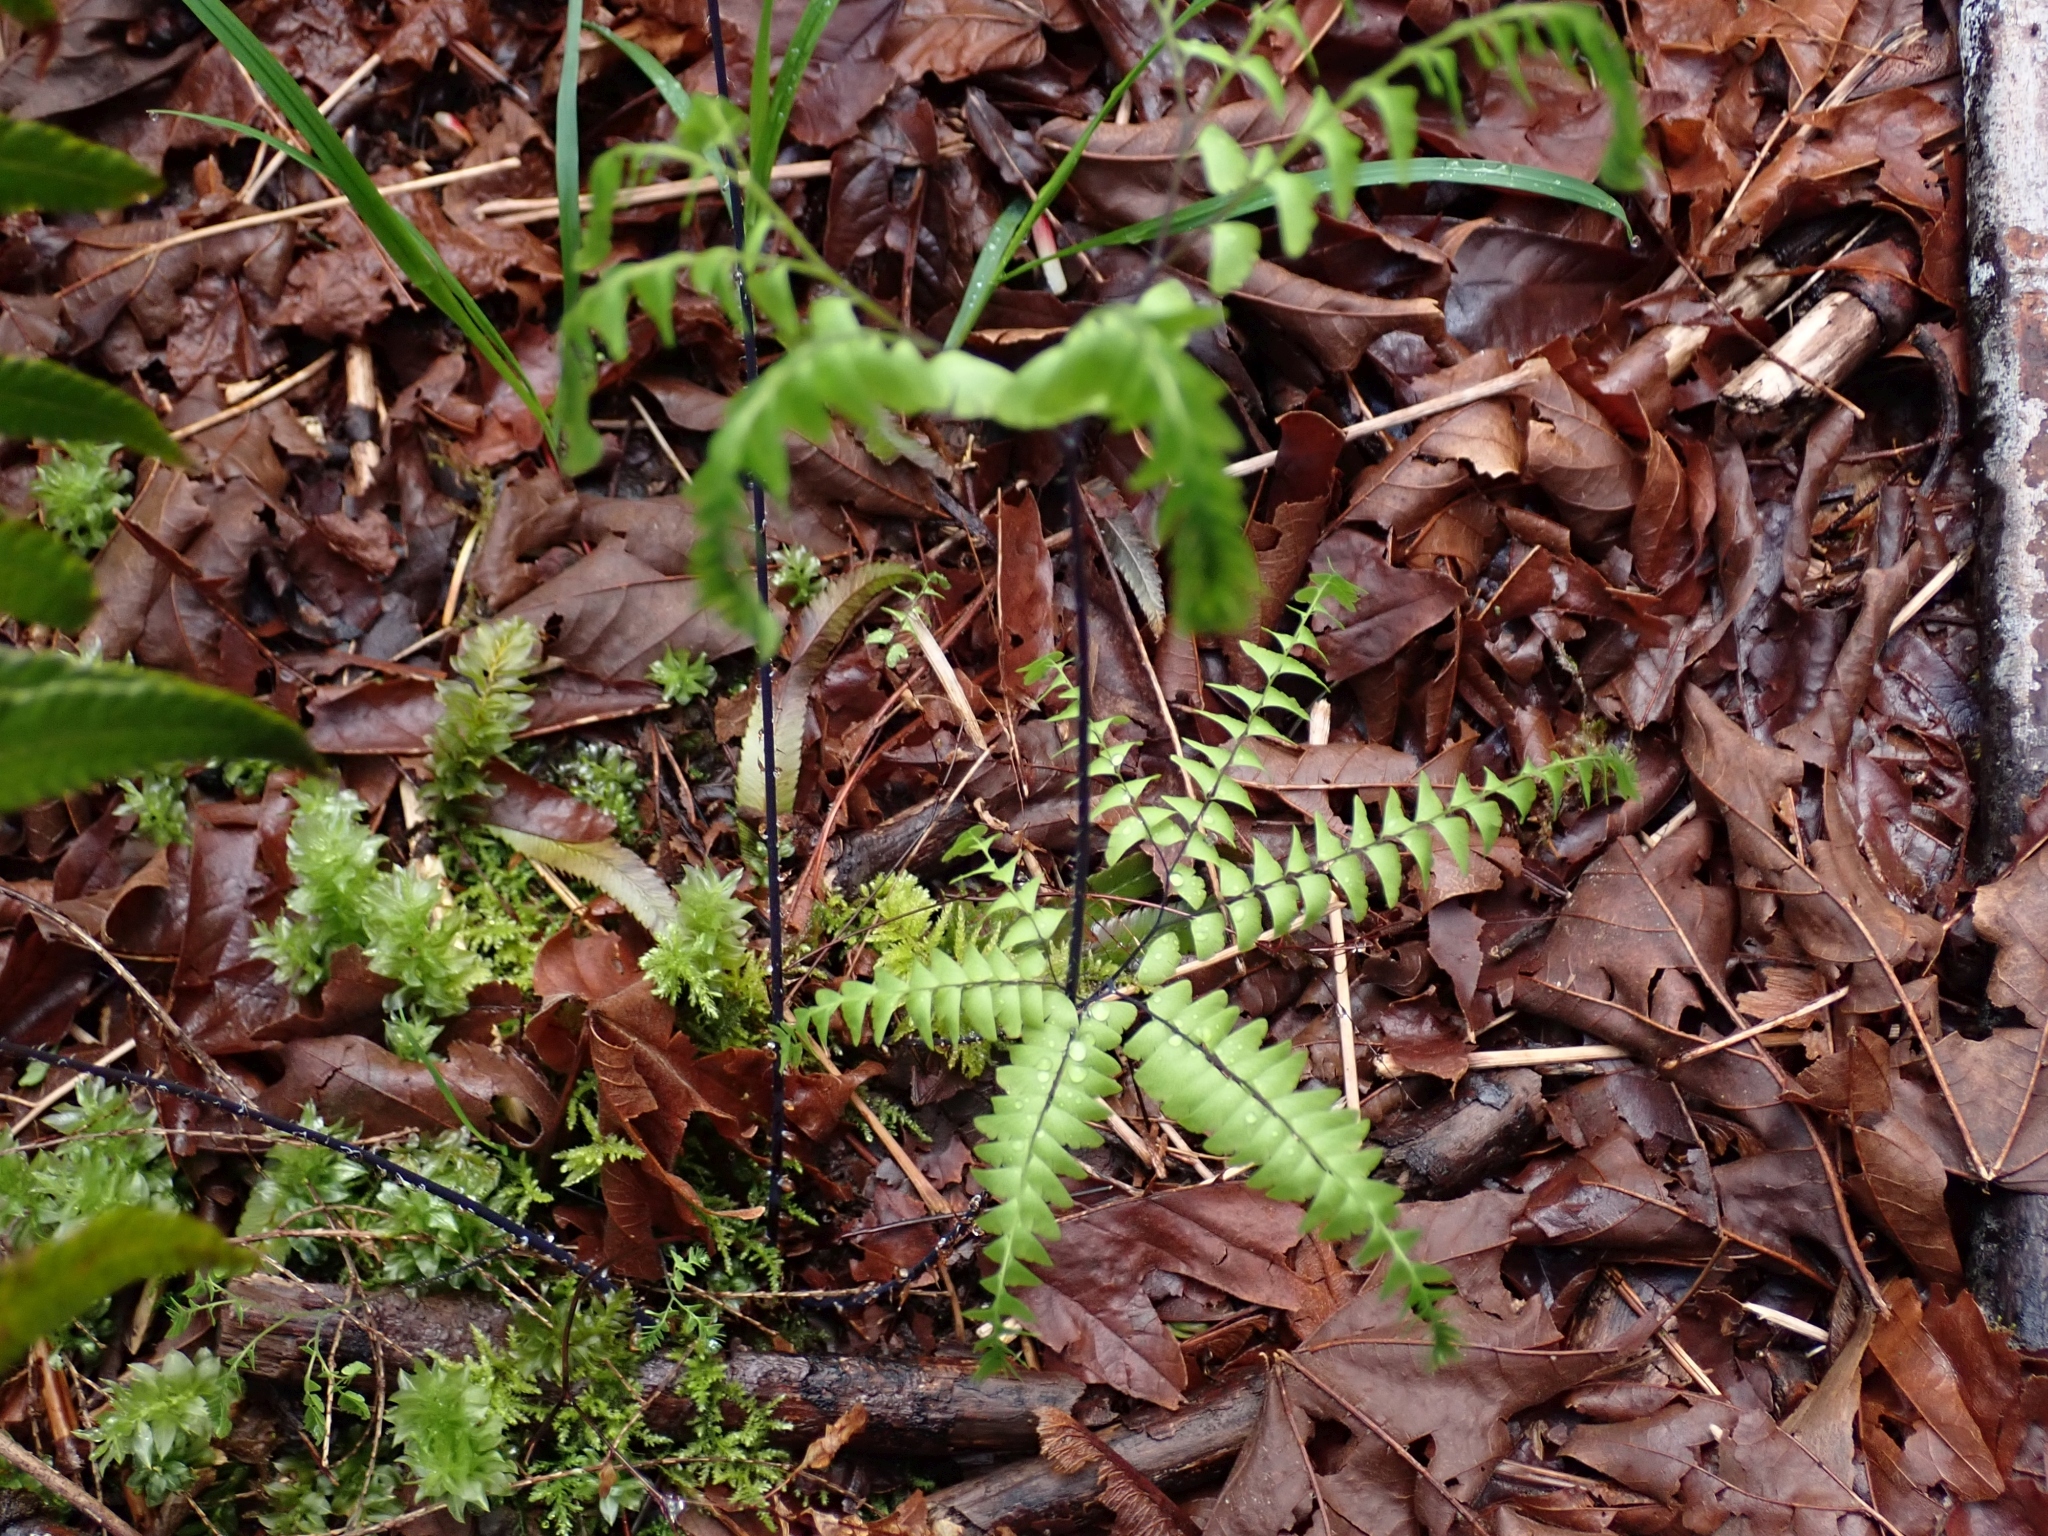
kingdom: Plantae
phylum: Tracheophyta
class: Polypodiopsida
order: Polypodiales
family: Pteridaceae
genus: Adiantum
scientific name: Adiantum aleuticum
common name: Aleutian maidenhair fern
